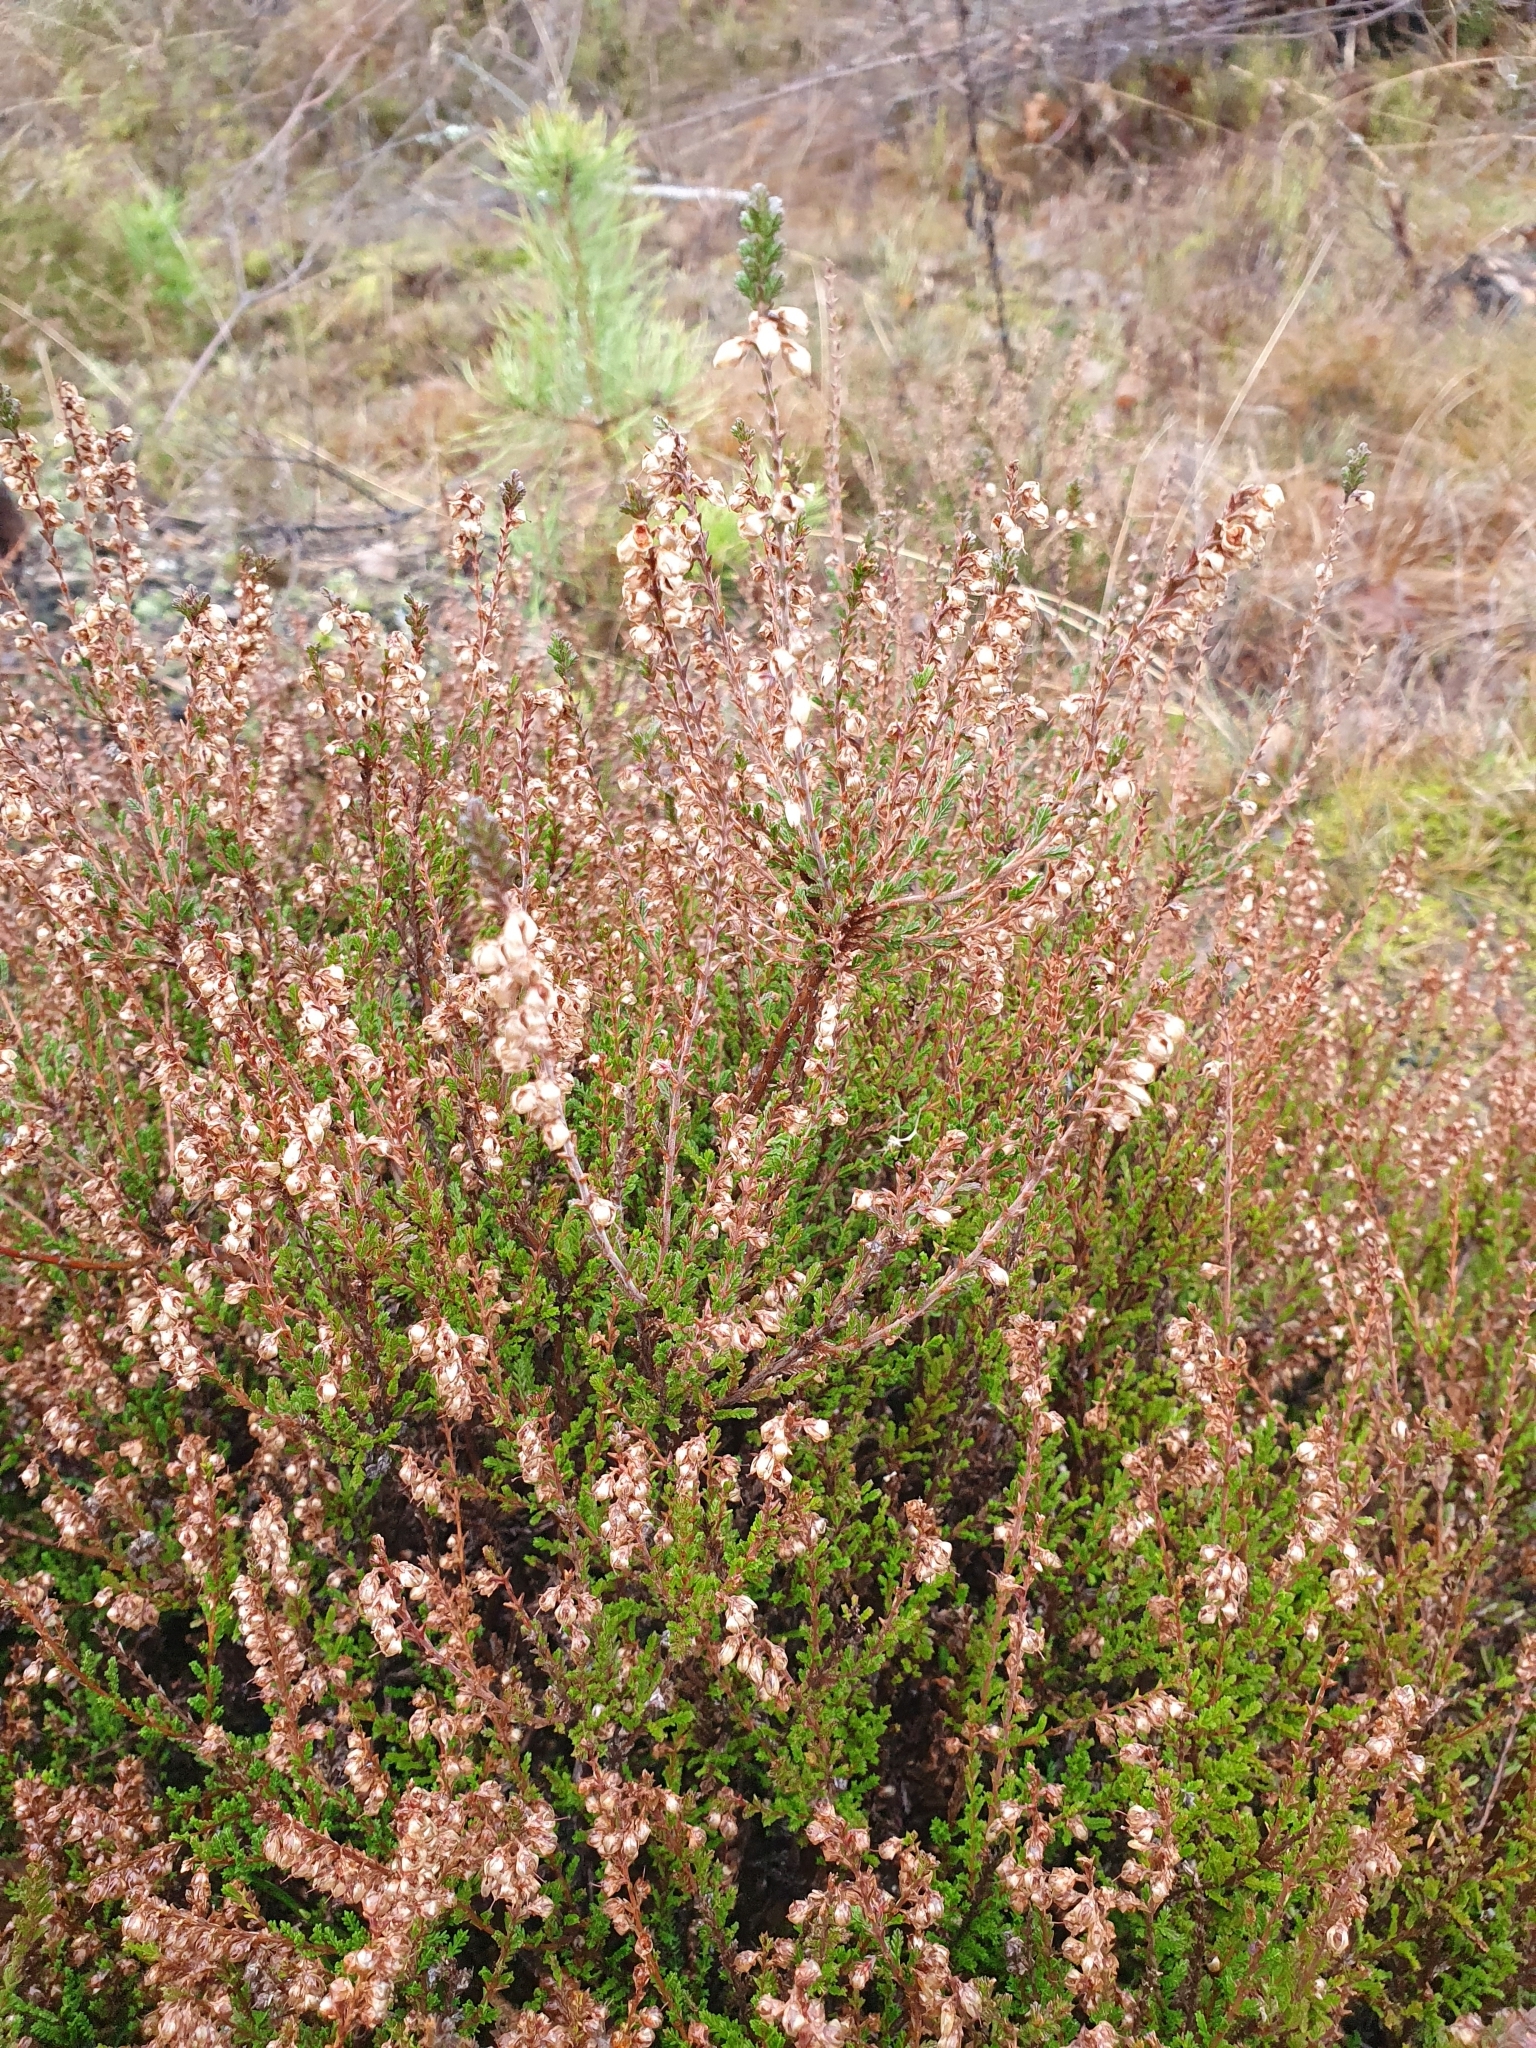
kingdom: Plantae
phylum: Tracheophyta
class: Magnoliopsida
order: Ericales
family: Ericaceae
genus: Calluna
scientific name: Calluna vulgaris
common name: Heather
